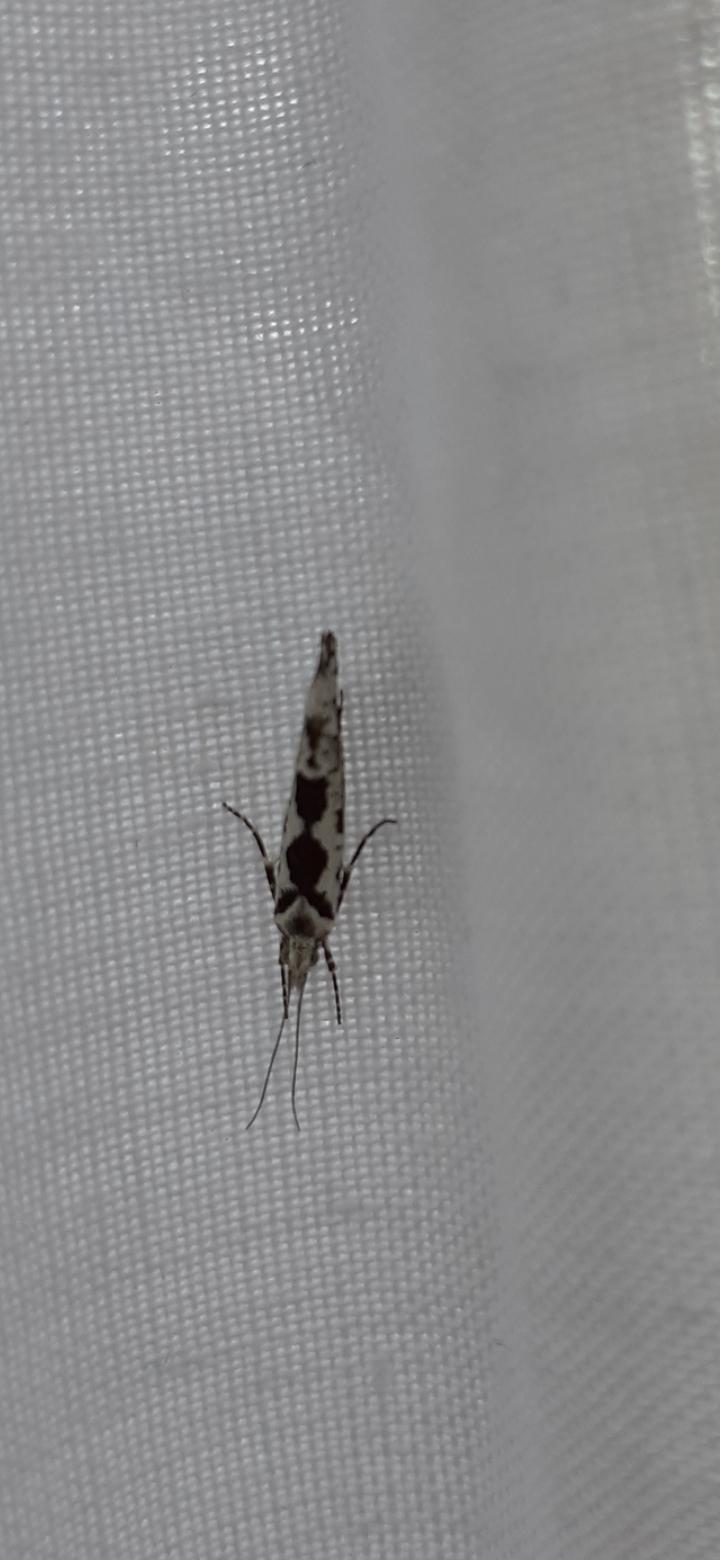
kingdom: Animalia
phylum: Arthropoda
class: Insecta
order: Lepidoptera
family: Plutellidae
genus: Ypsolophus
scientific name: Ypsolophus sequella
